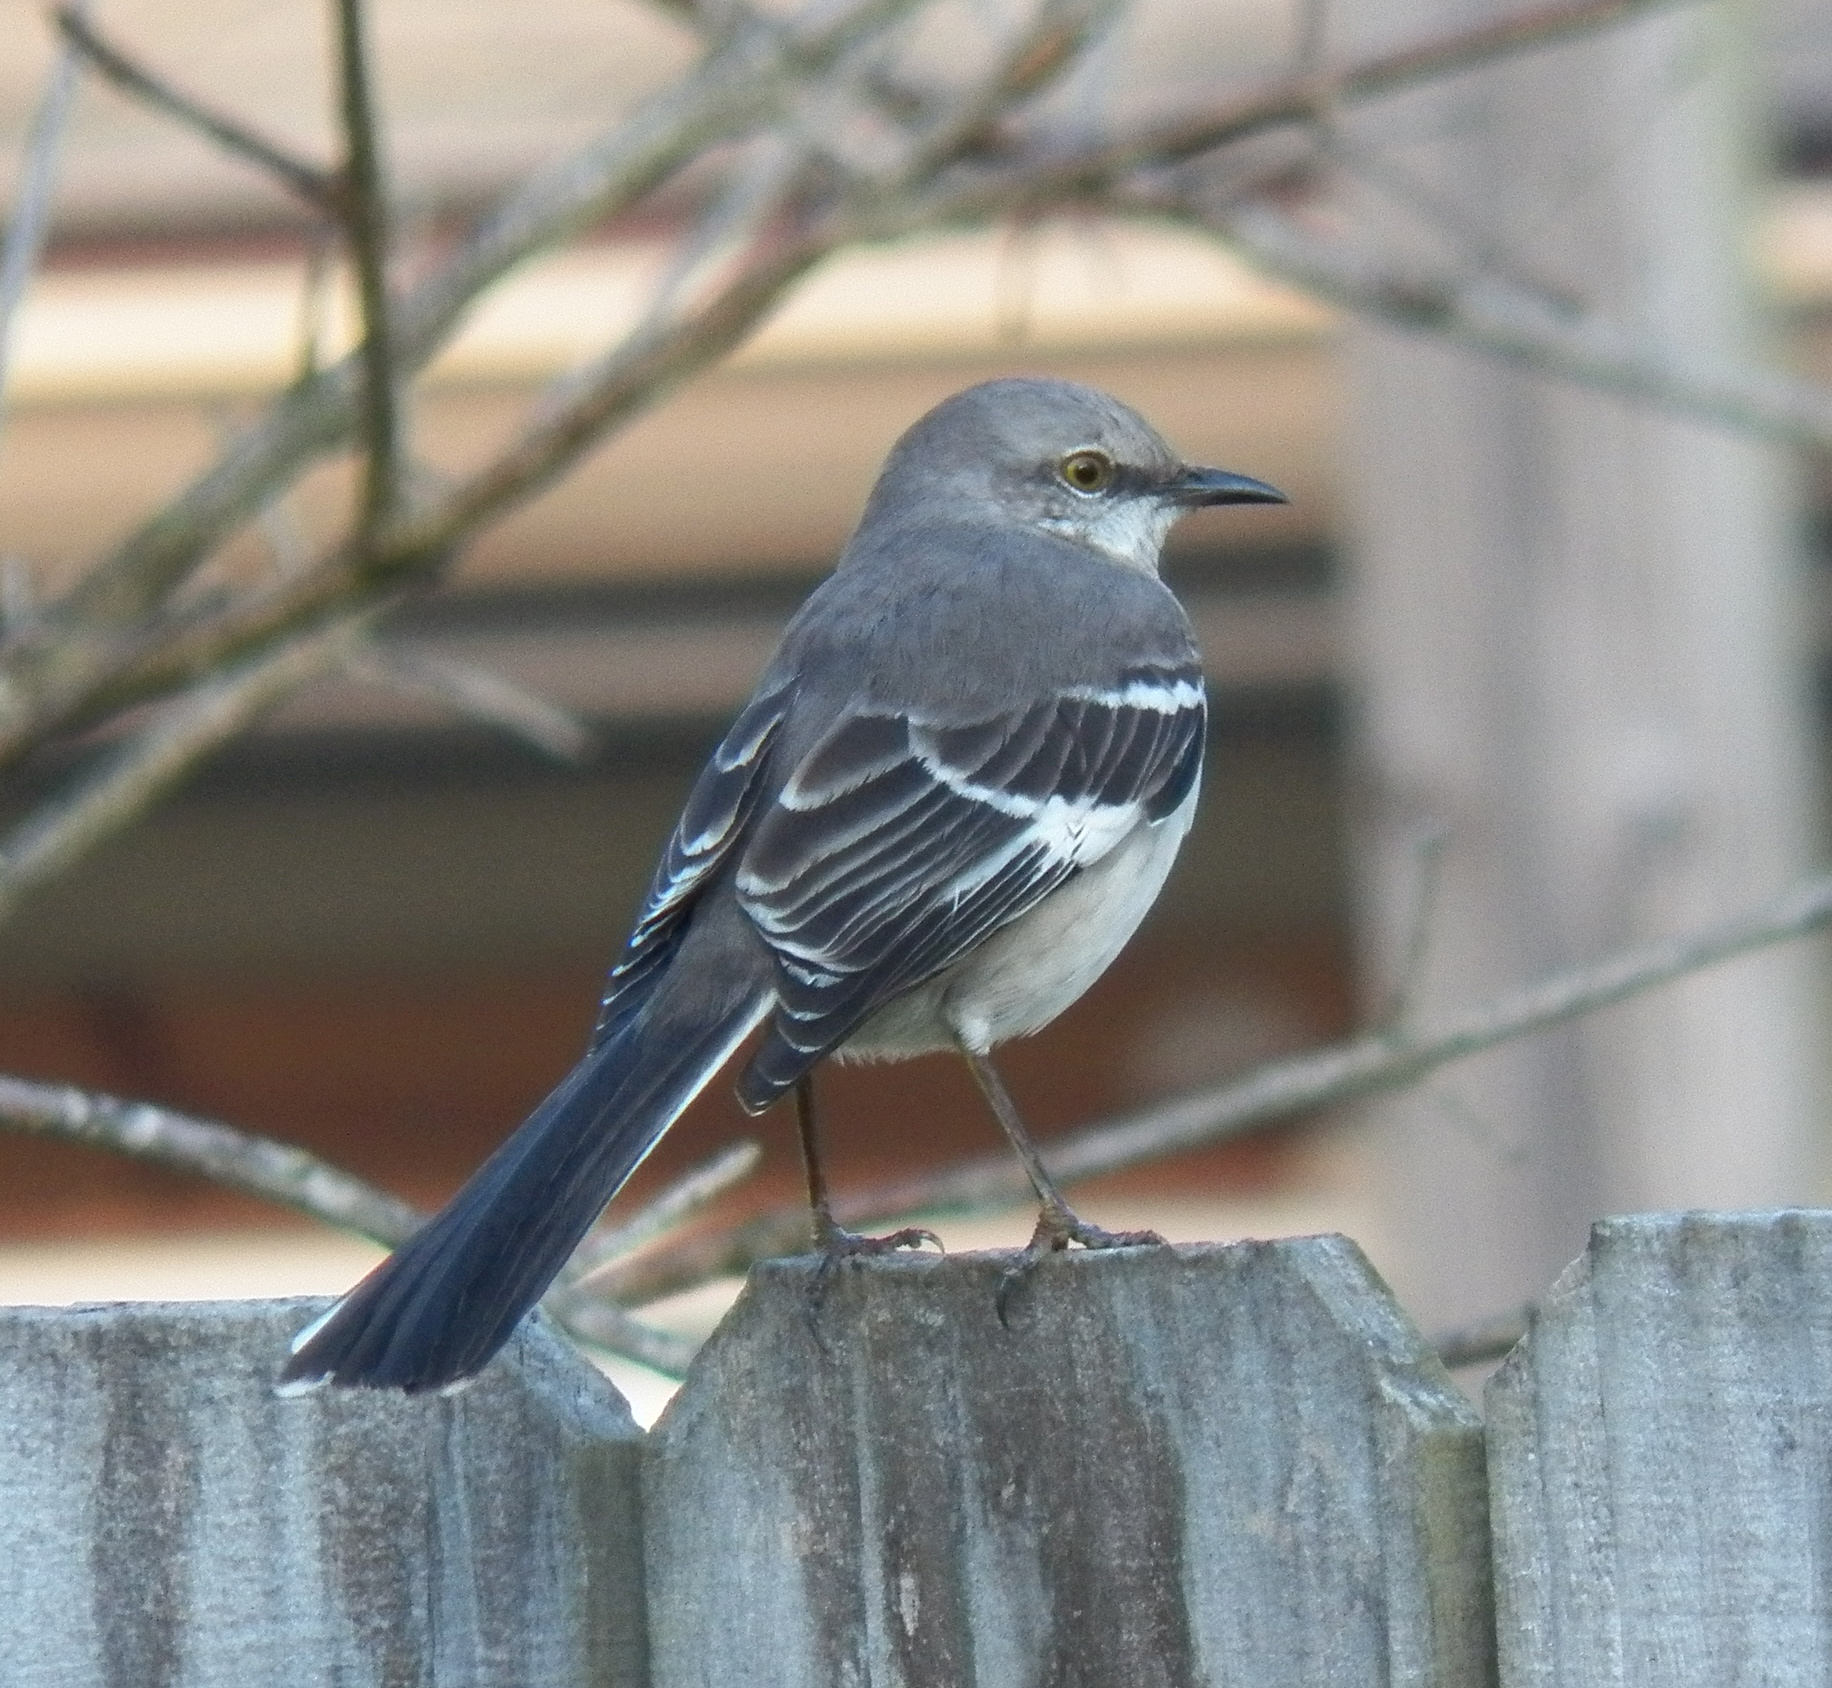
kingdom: Animalia
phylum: Chordata
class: Aves
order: Passeriformes
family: Mimidae
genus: Mimus
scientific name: Mimus polyglottos
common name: Northern mockingbird
